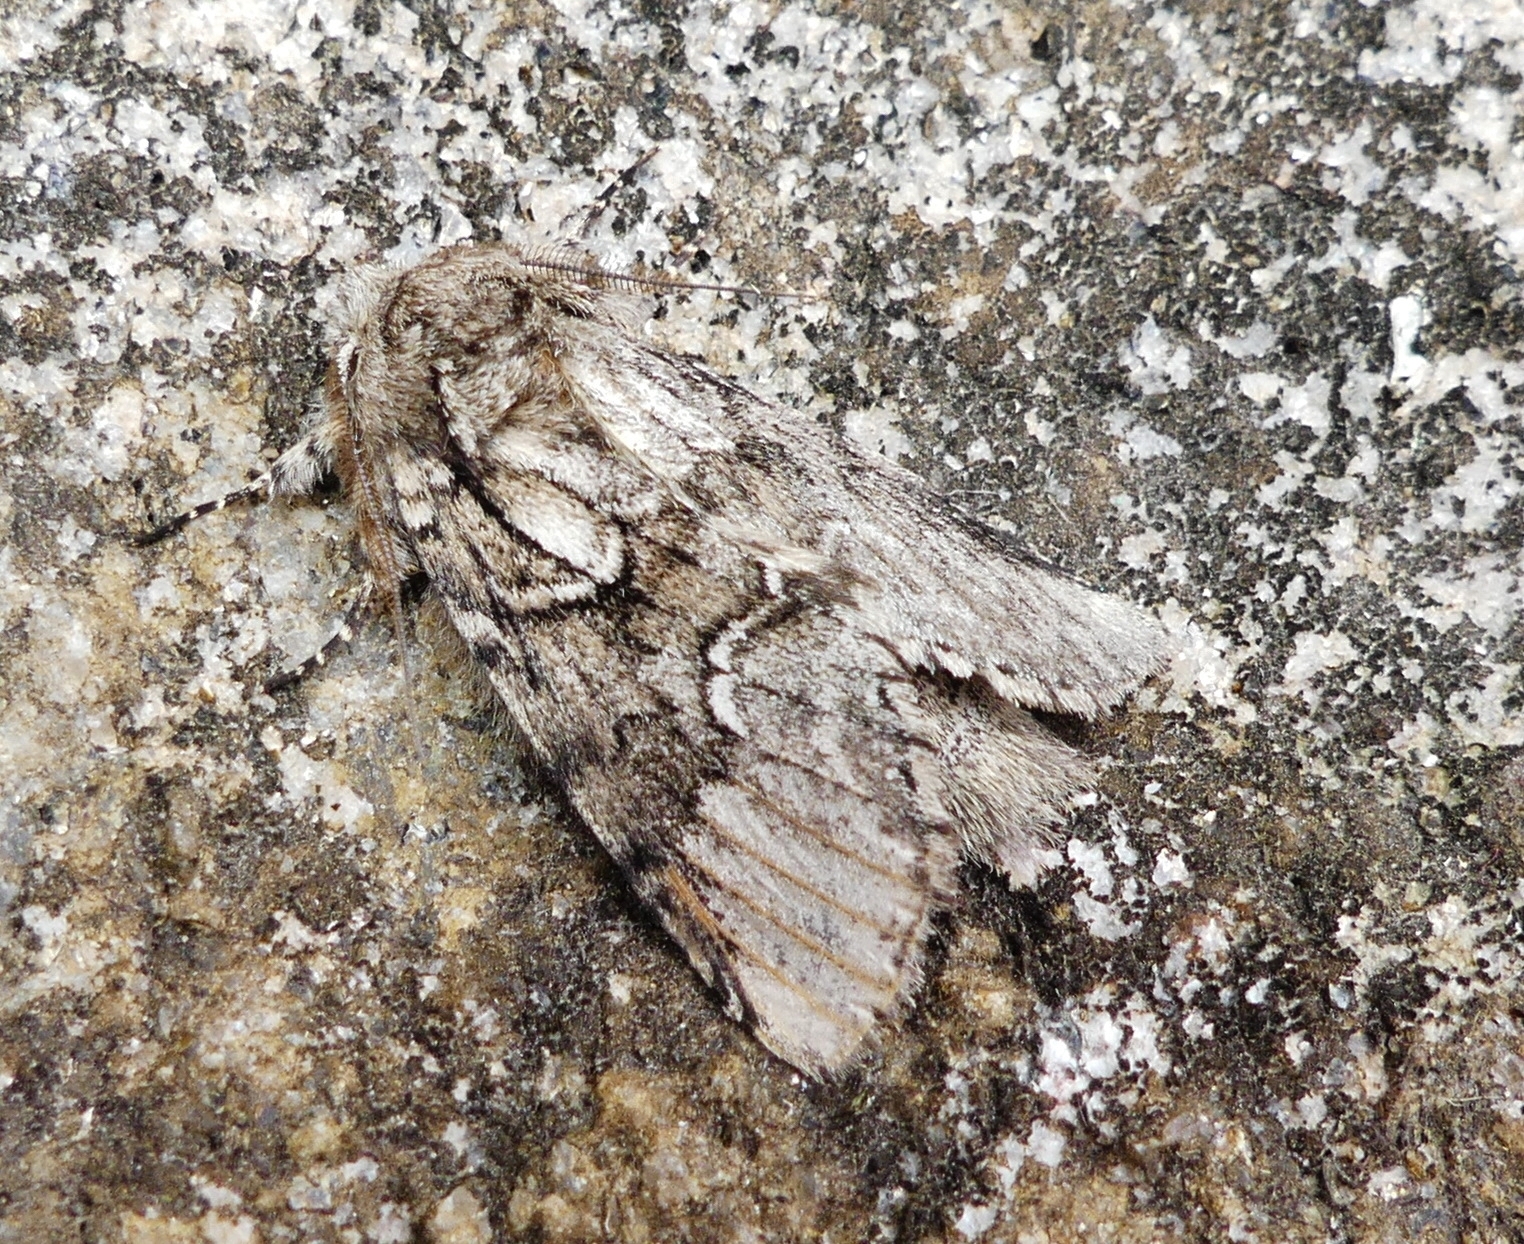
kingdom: Animalia
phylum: Arthropoda
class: Insecta
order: Lepidoptera
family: Notodontidae
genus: Lochmaeus
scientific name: Lochmaeus bilineata
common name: Double-lined prominent
